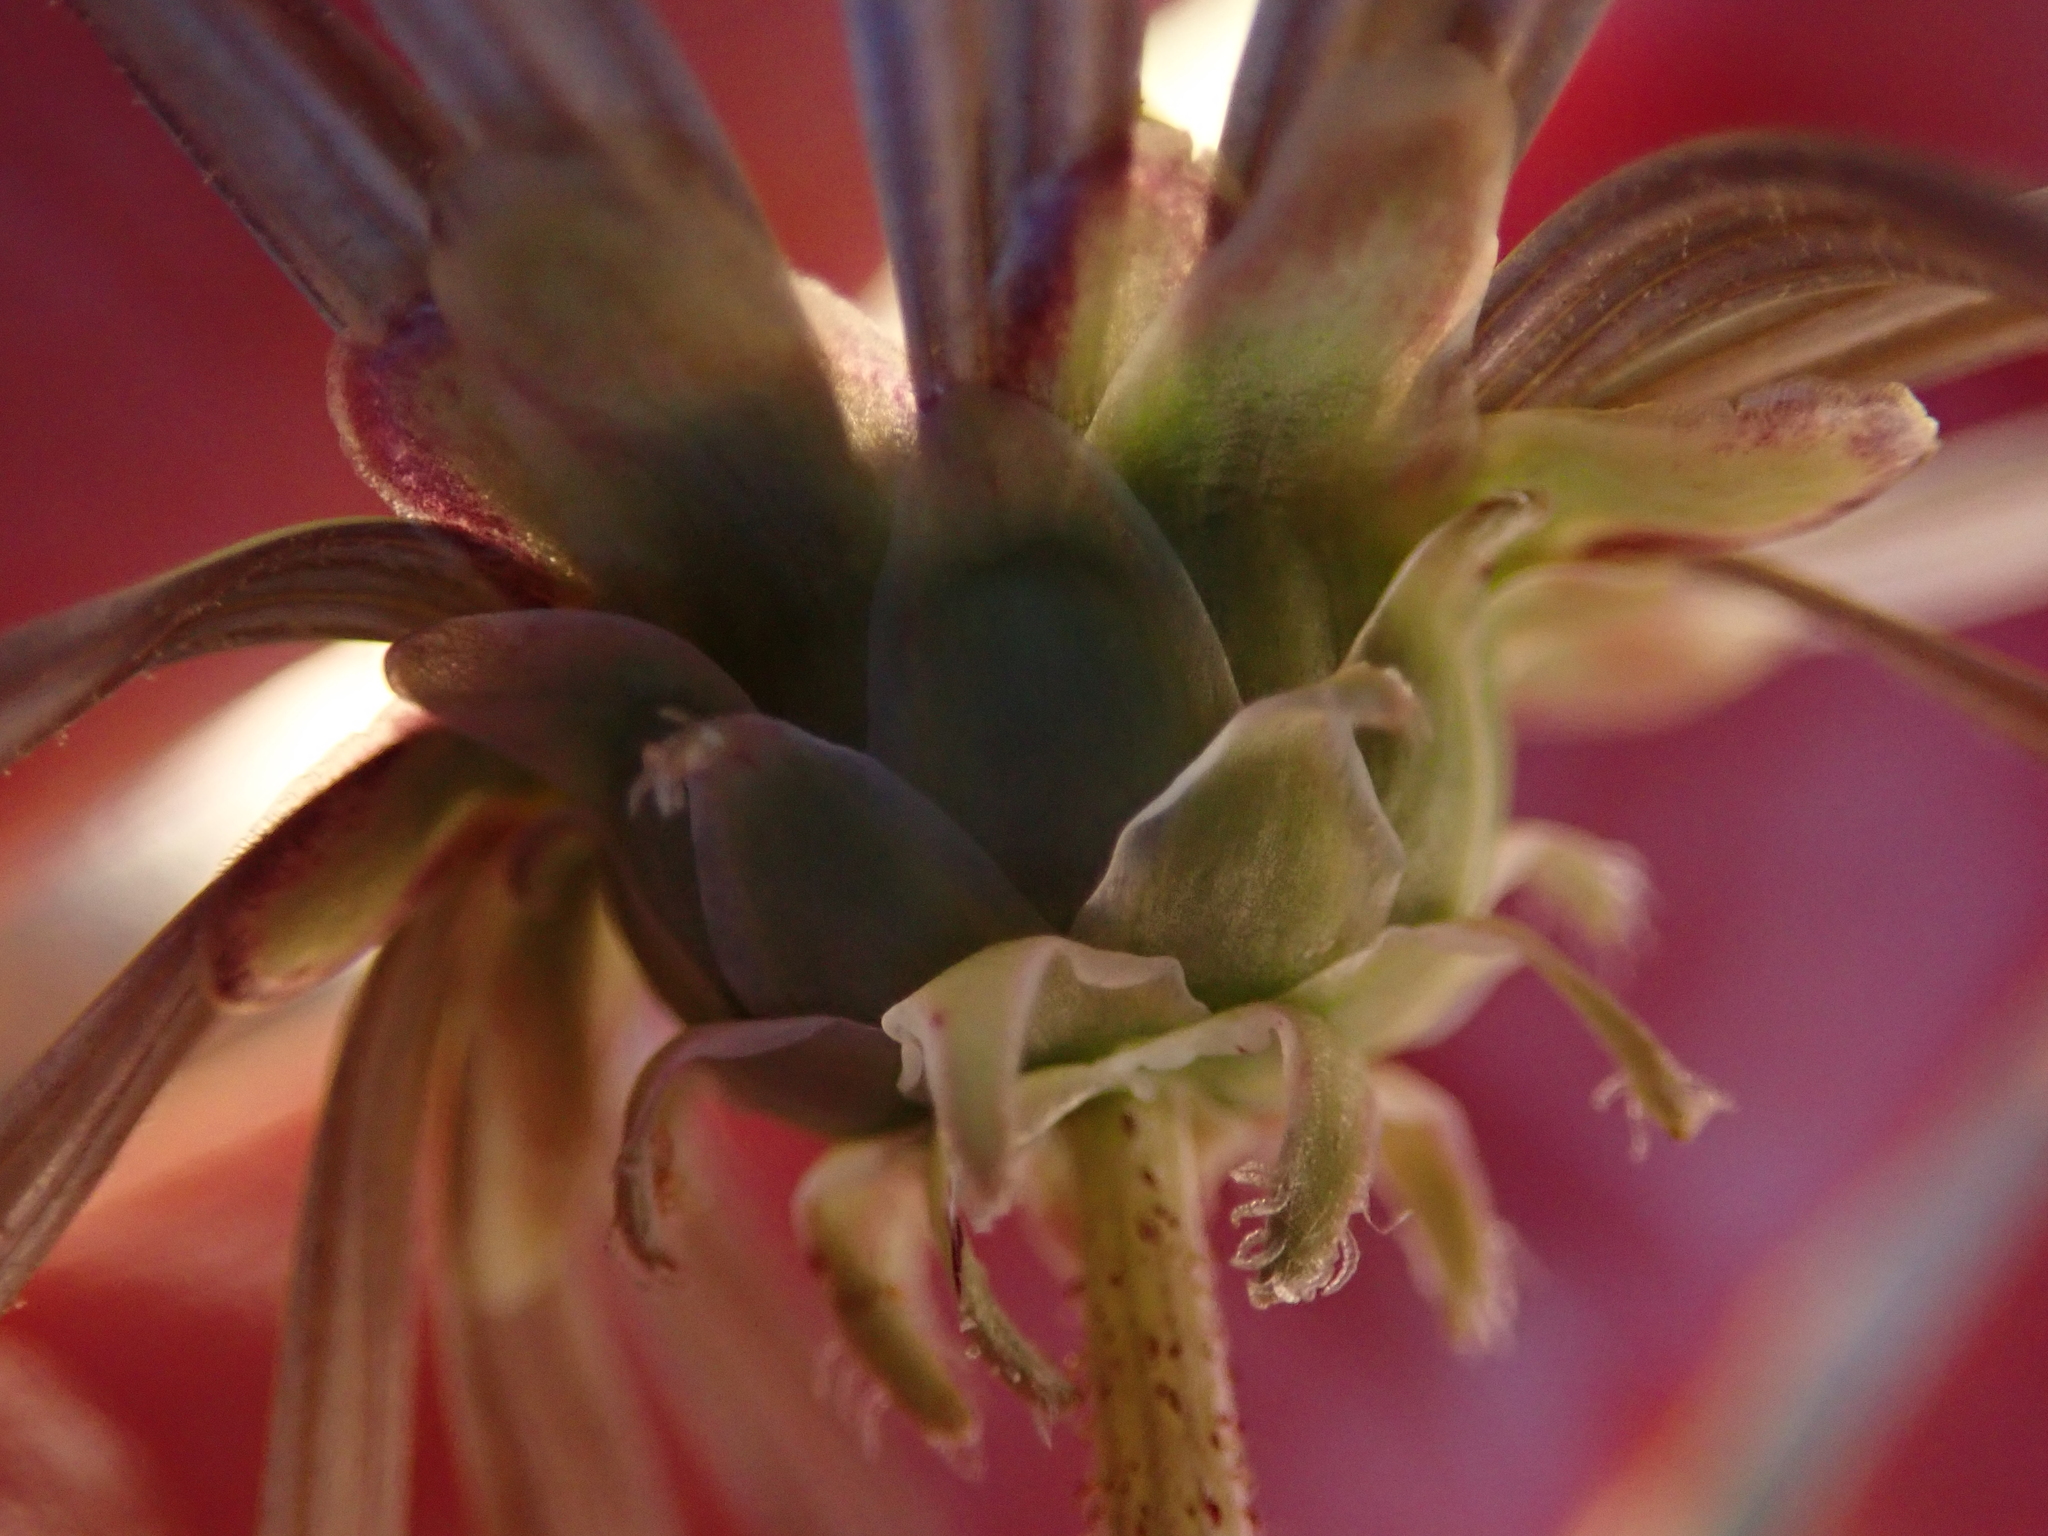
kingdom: Plantae
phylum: Tracheophyta
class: Magnoliopsida
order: Asterales
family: Asteraceae
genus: Arctotheca
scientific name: Arctotheca calendula
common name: Capeweed
